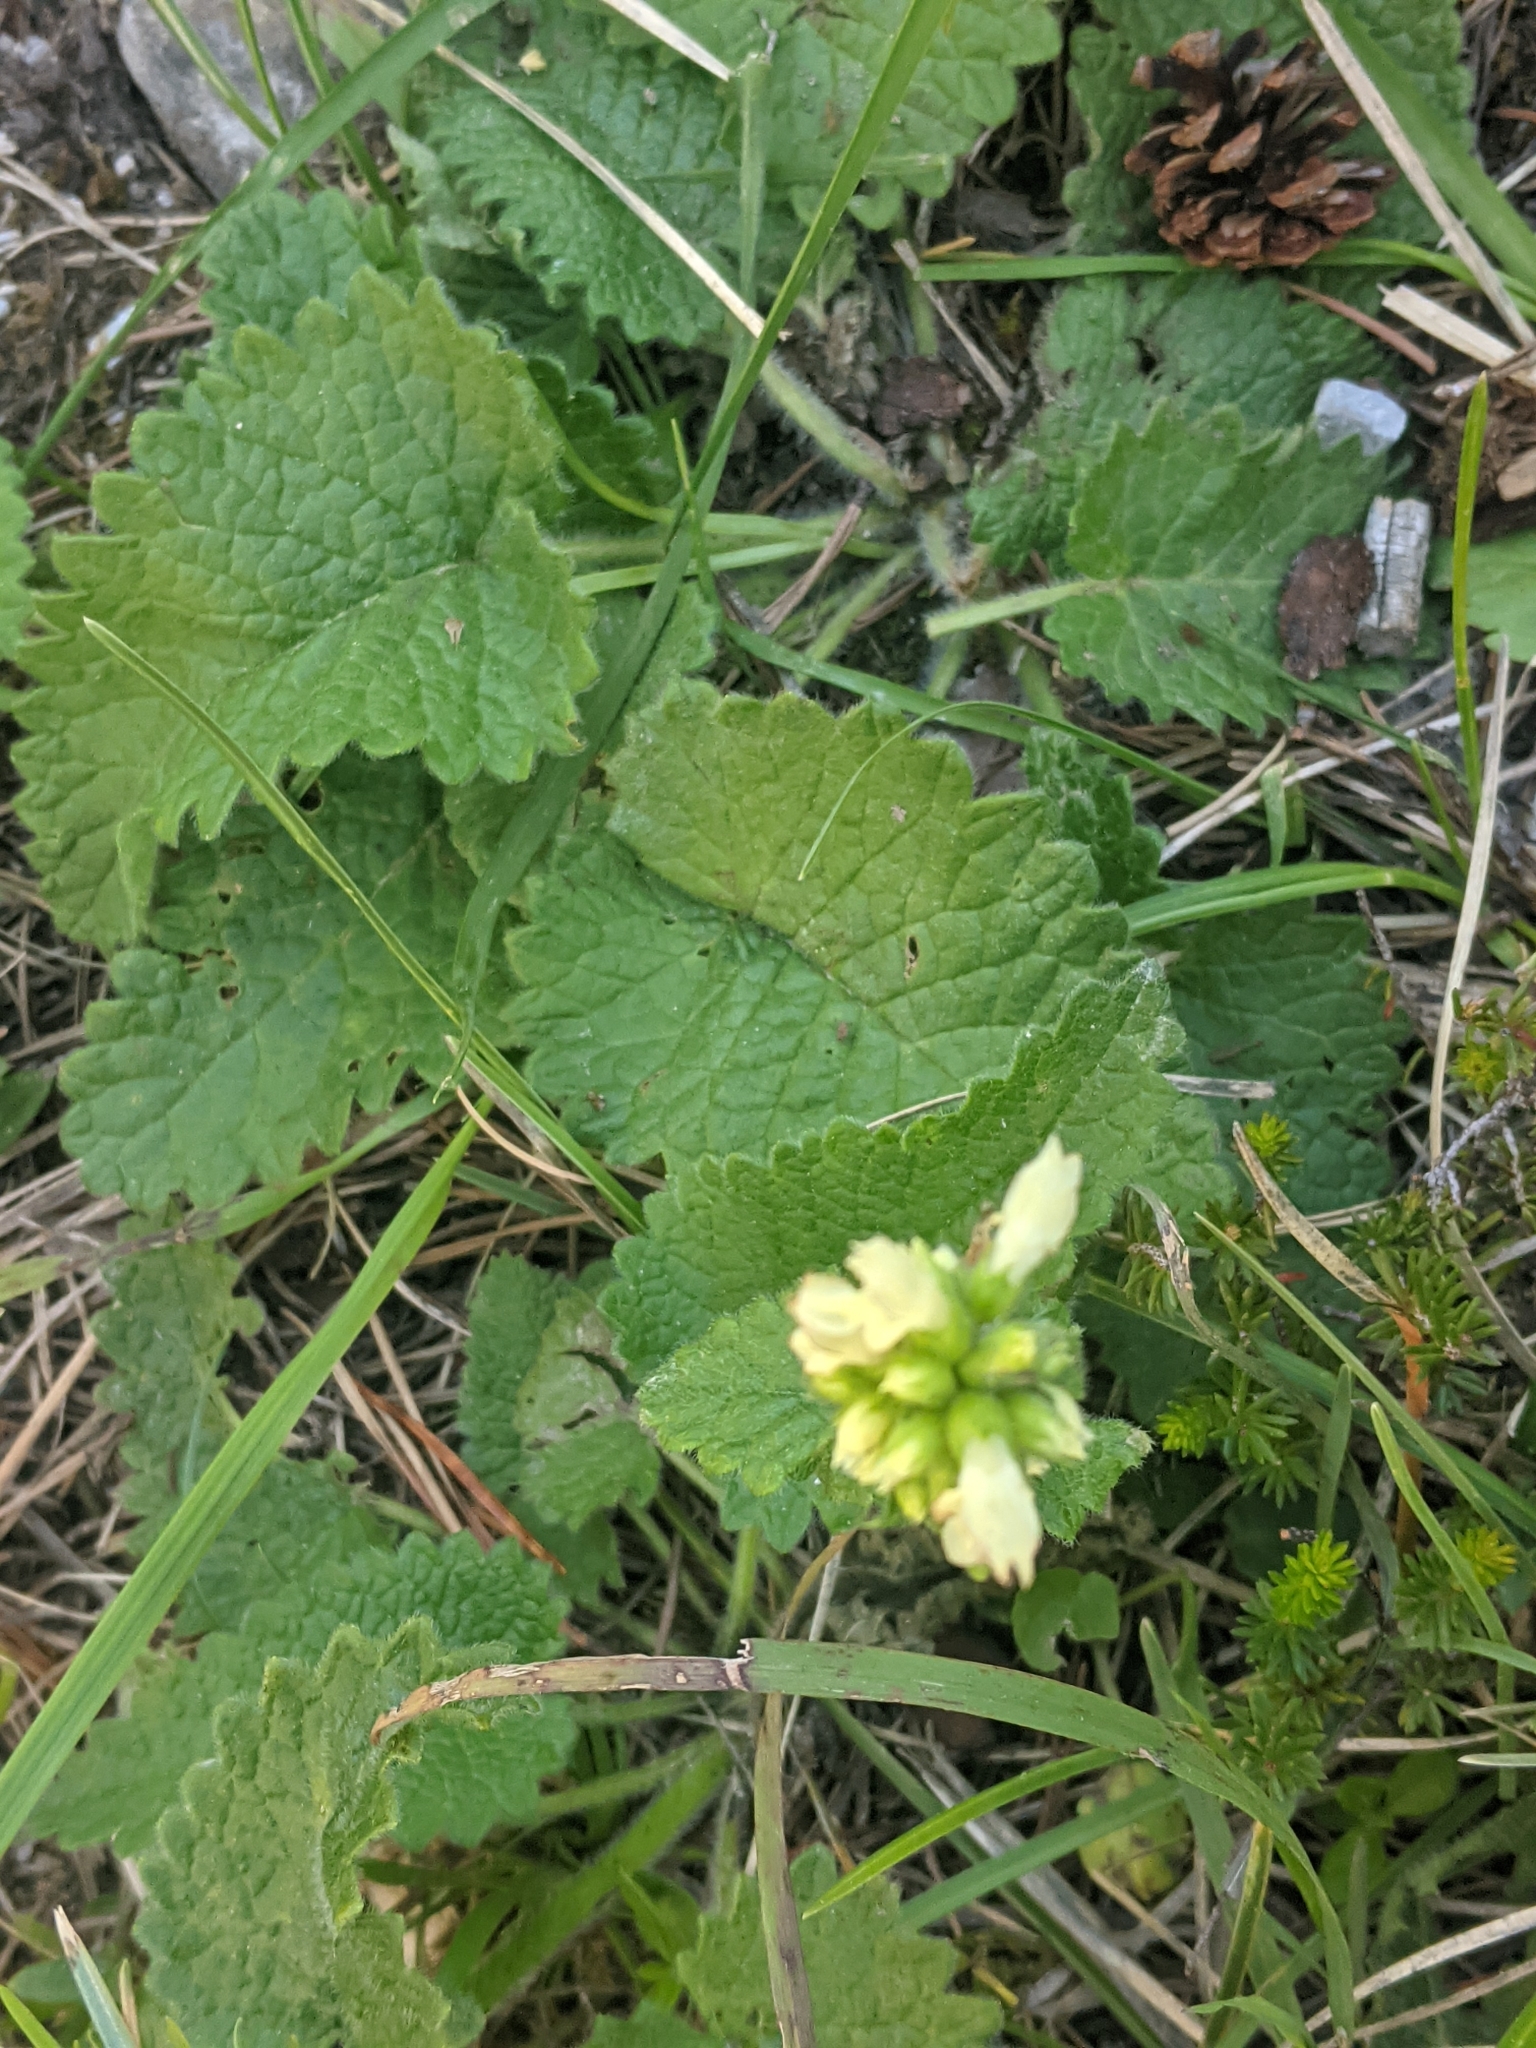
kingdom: Plantae
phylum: Tracheophyta
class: Magnoliopsida
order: Lamiales
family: Lamiaceae
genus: Betonica
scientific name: Betonica alopecuros
